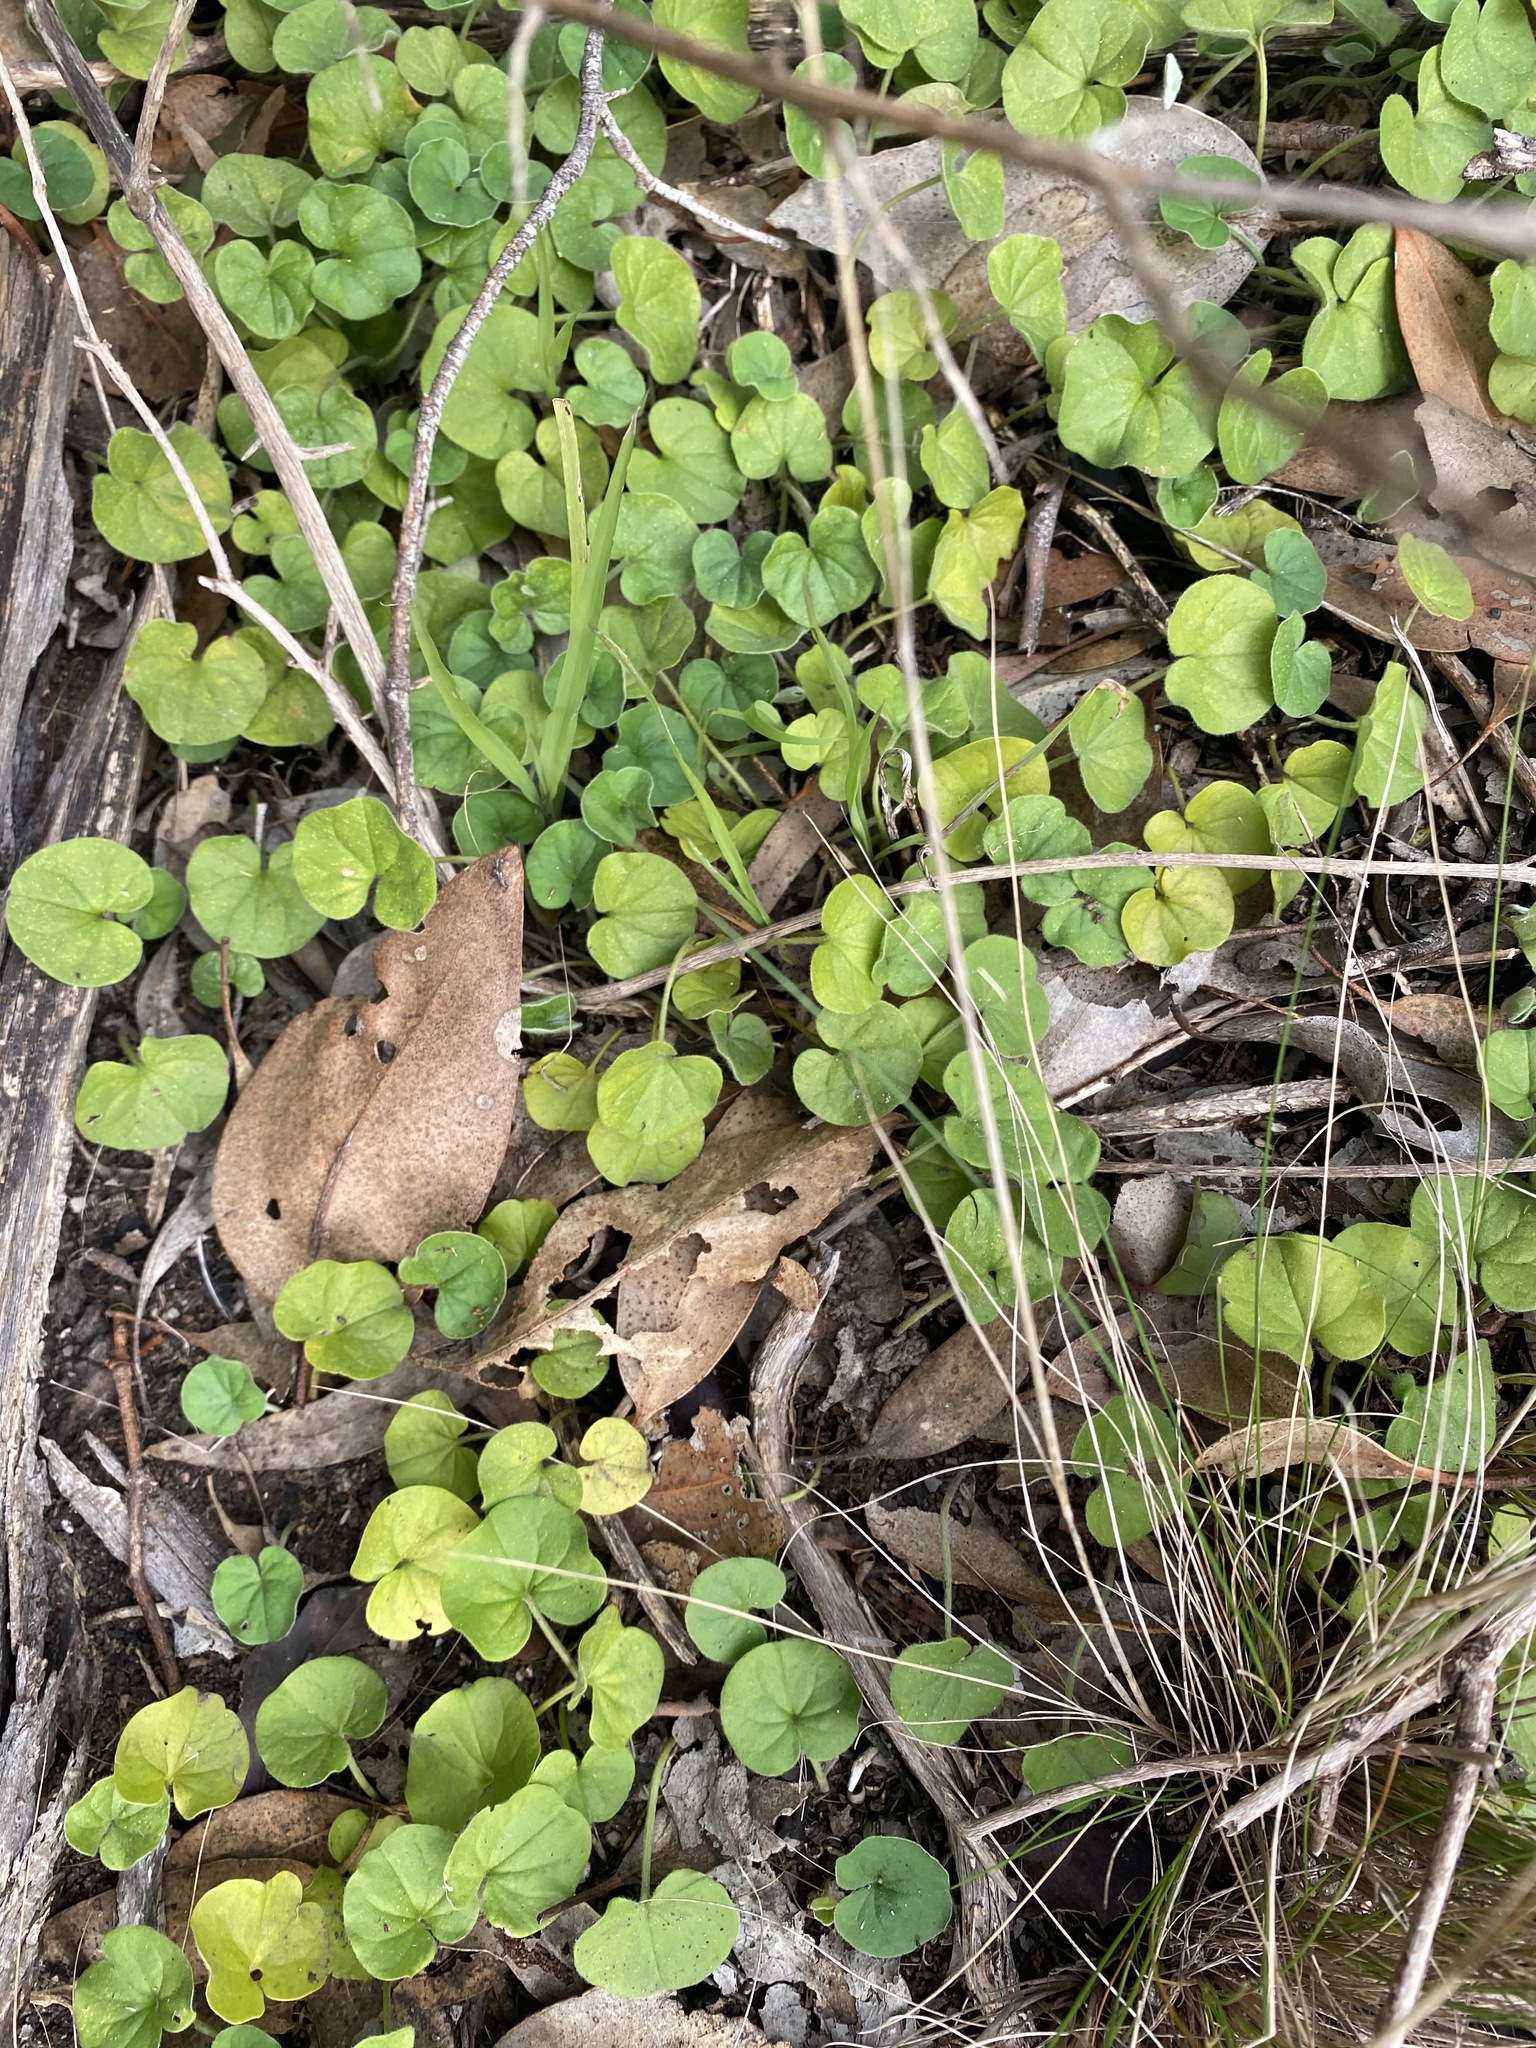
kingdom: Plantae
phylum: Tracheophyta
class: Magnoliopsida
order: Solanales
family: Convolvulaceae
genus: Dichondra
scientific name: Dichondra repens
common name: Kidneyweed
